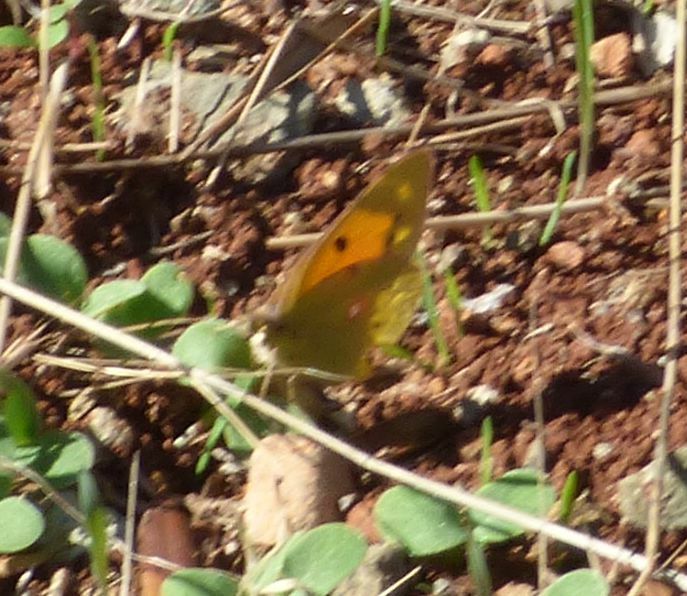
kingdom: Animalia
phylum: Arthropoda
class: Insecta
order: Lepidoptera
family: Pieridae
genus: Colias
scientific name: Colias croceus
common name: Clouded yellow
